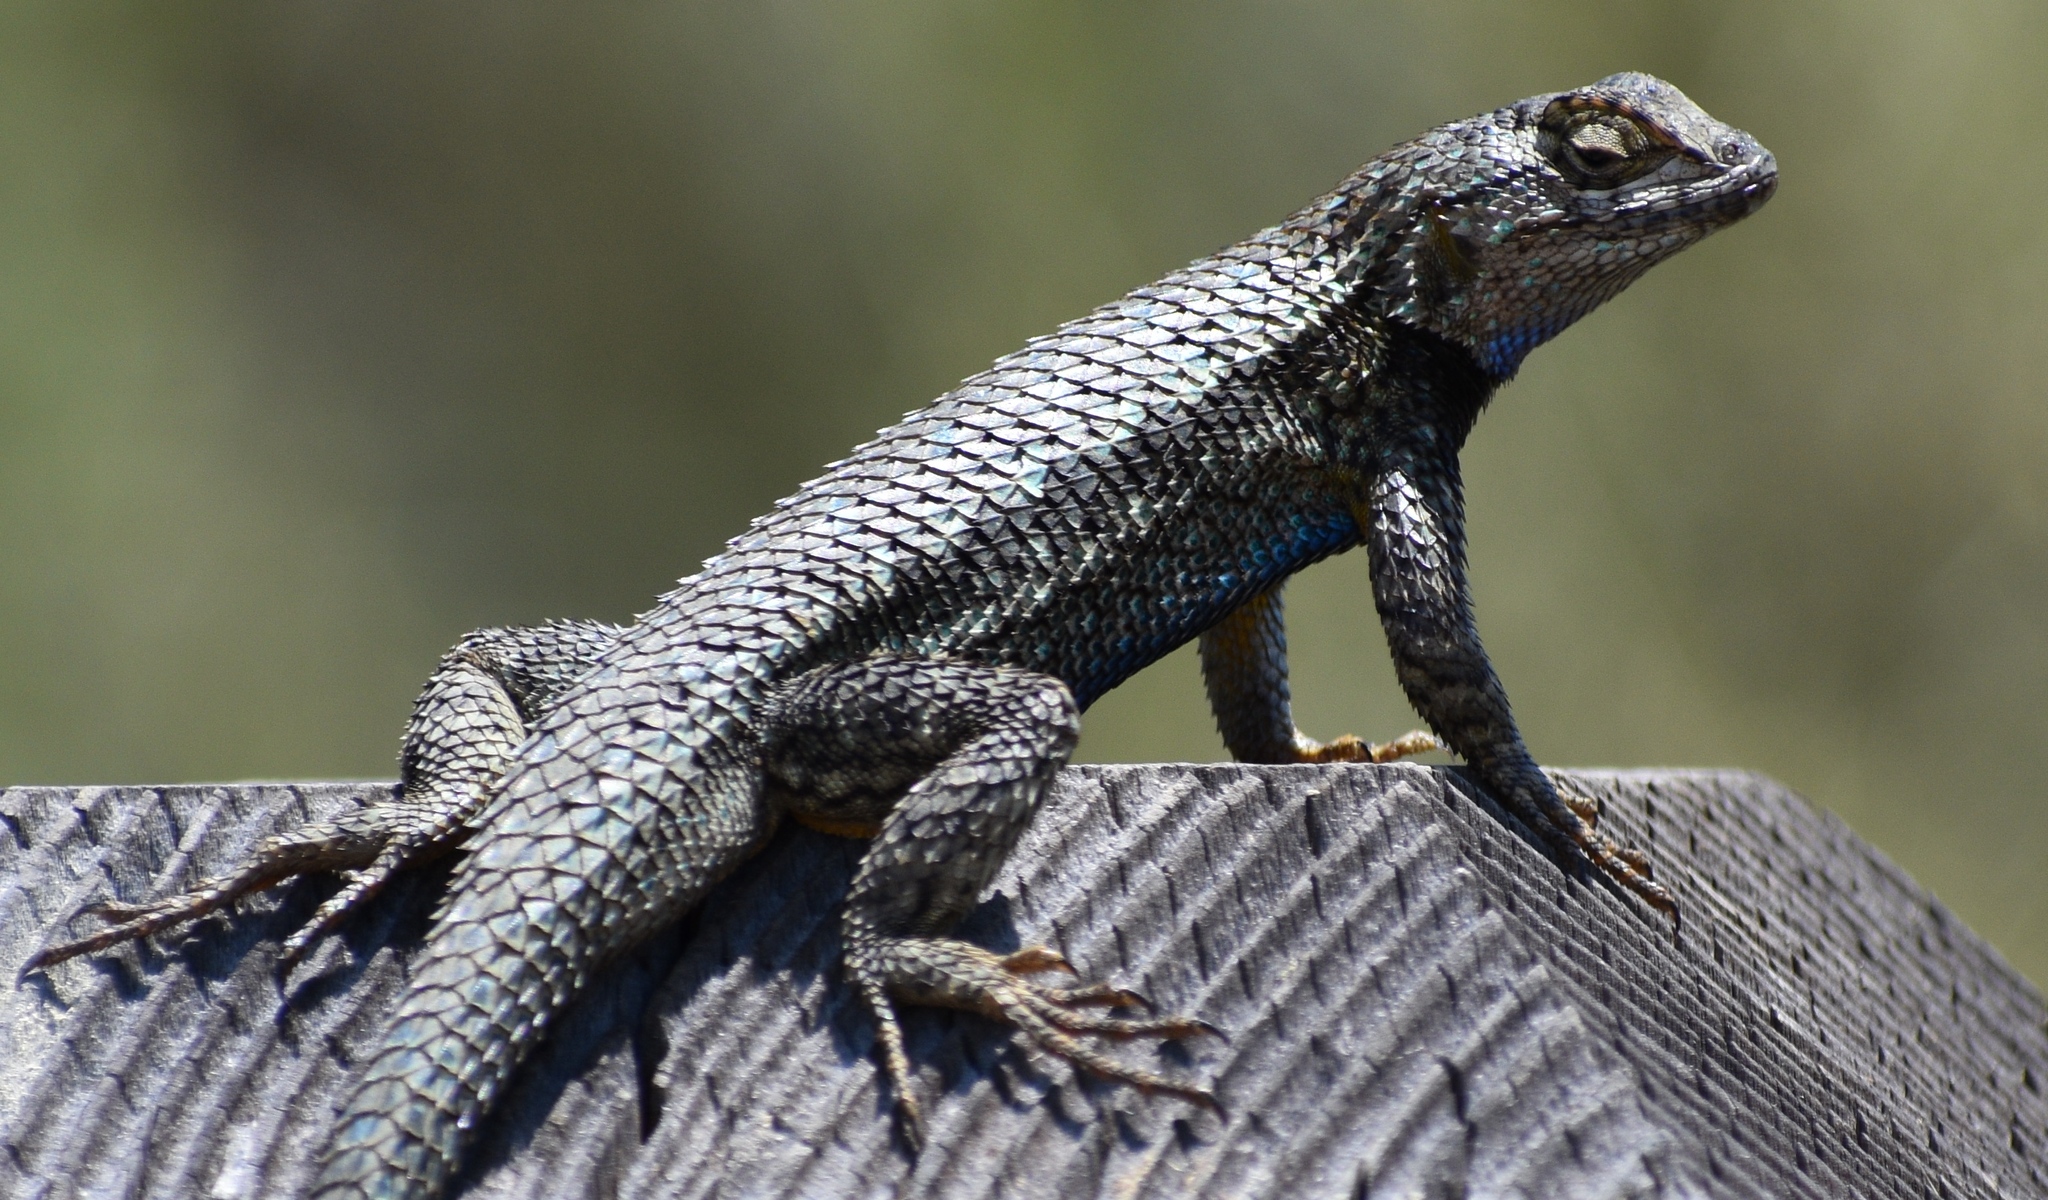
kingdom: Animalia
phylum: Chordata
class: Squamata
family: Phrynosomatidae
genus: Sceloporus
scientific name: Sceloporus occidentalis
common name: Western fence lizard
